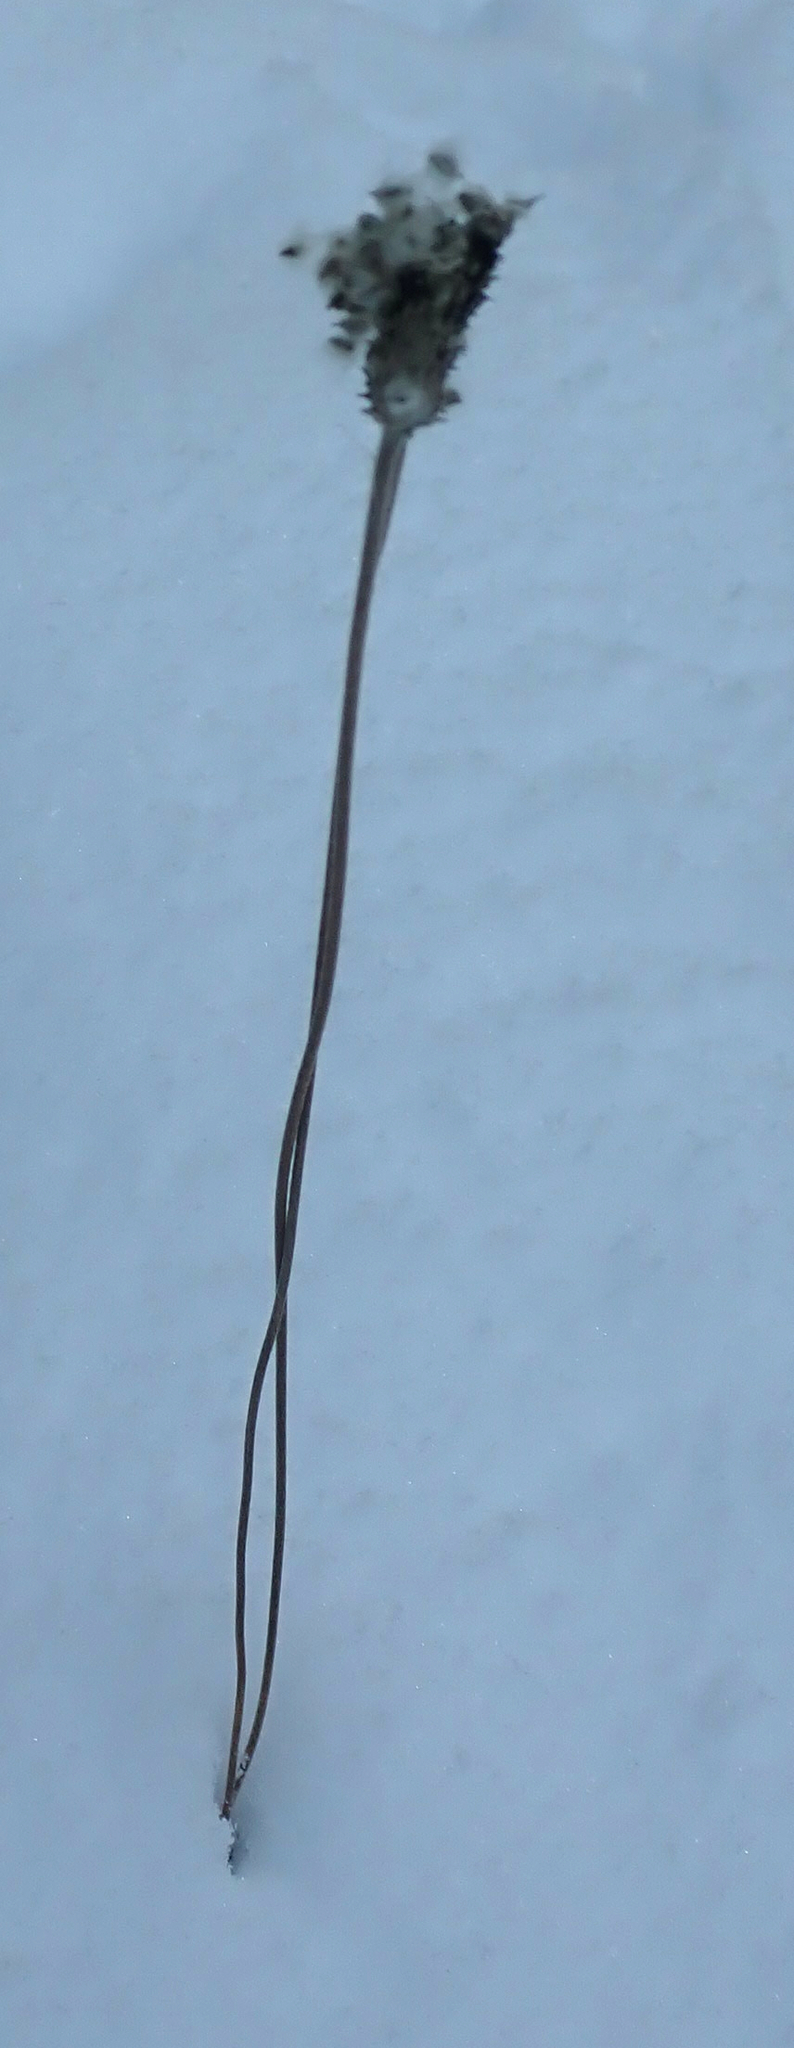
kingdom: Plantae
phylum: Tracheophyta
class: Magnoliopsida
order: Ranunculales
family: Ranunculaceae
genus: Anemone
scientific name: Anemone cylindrica
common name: Candle anemone
